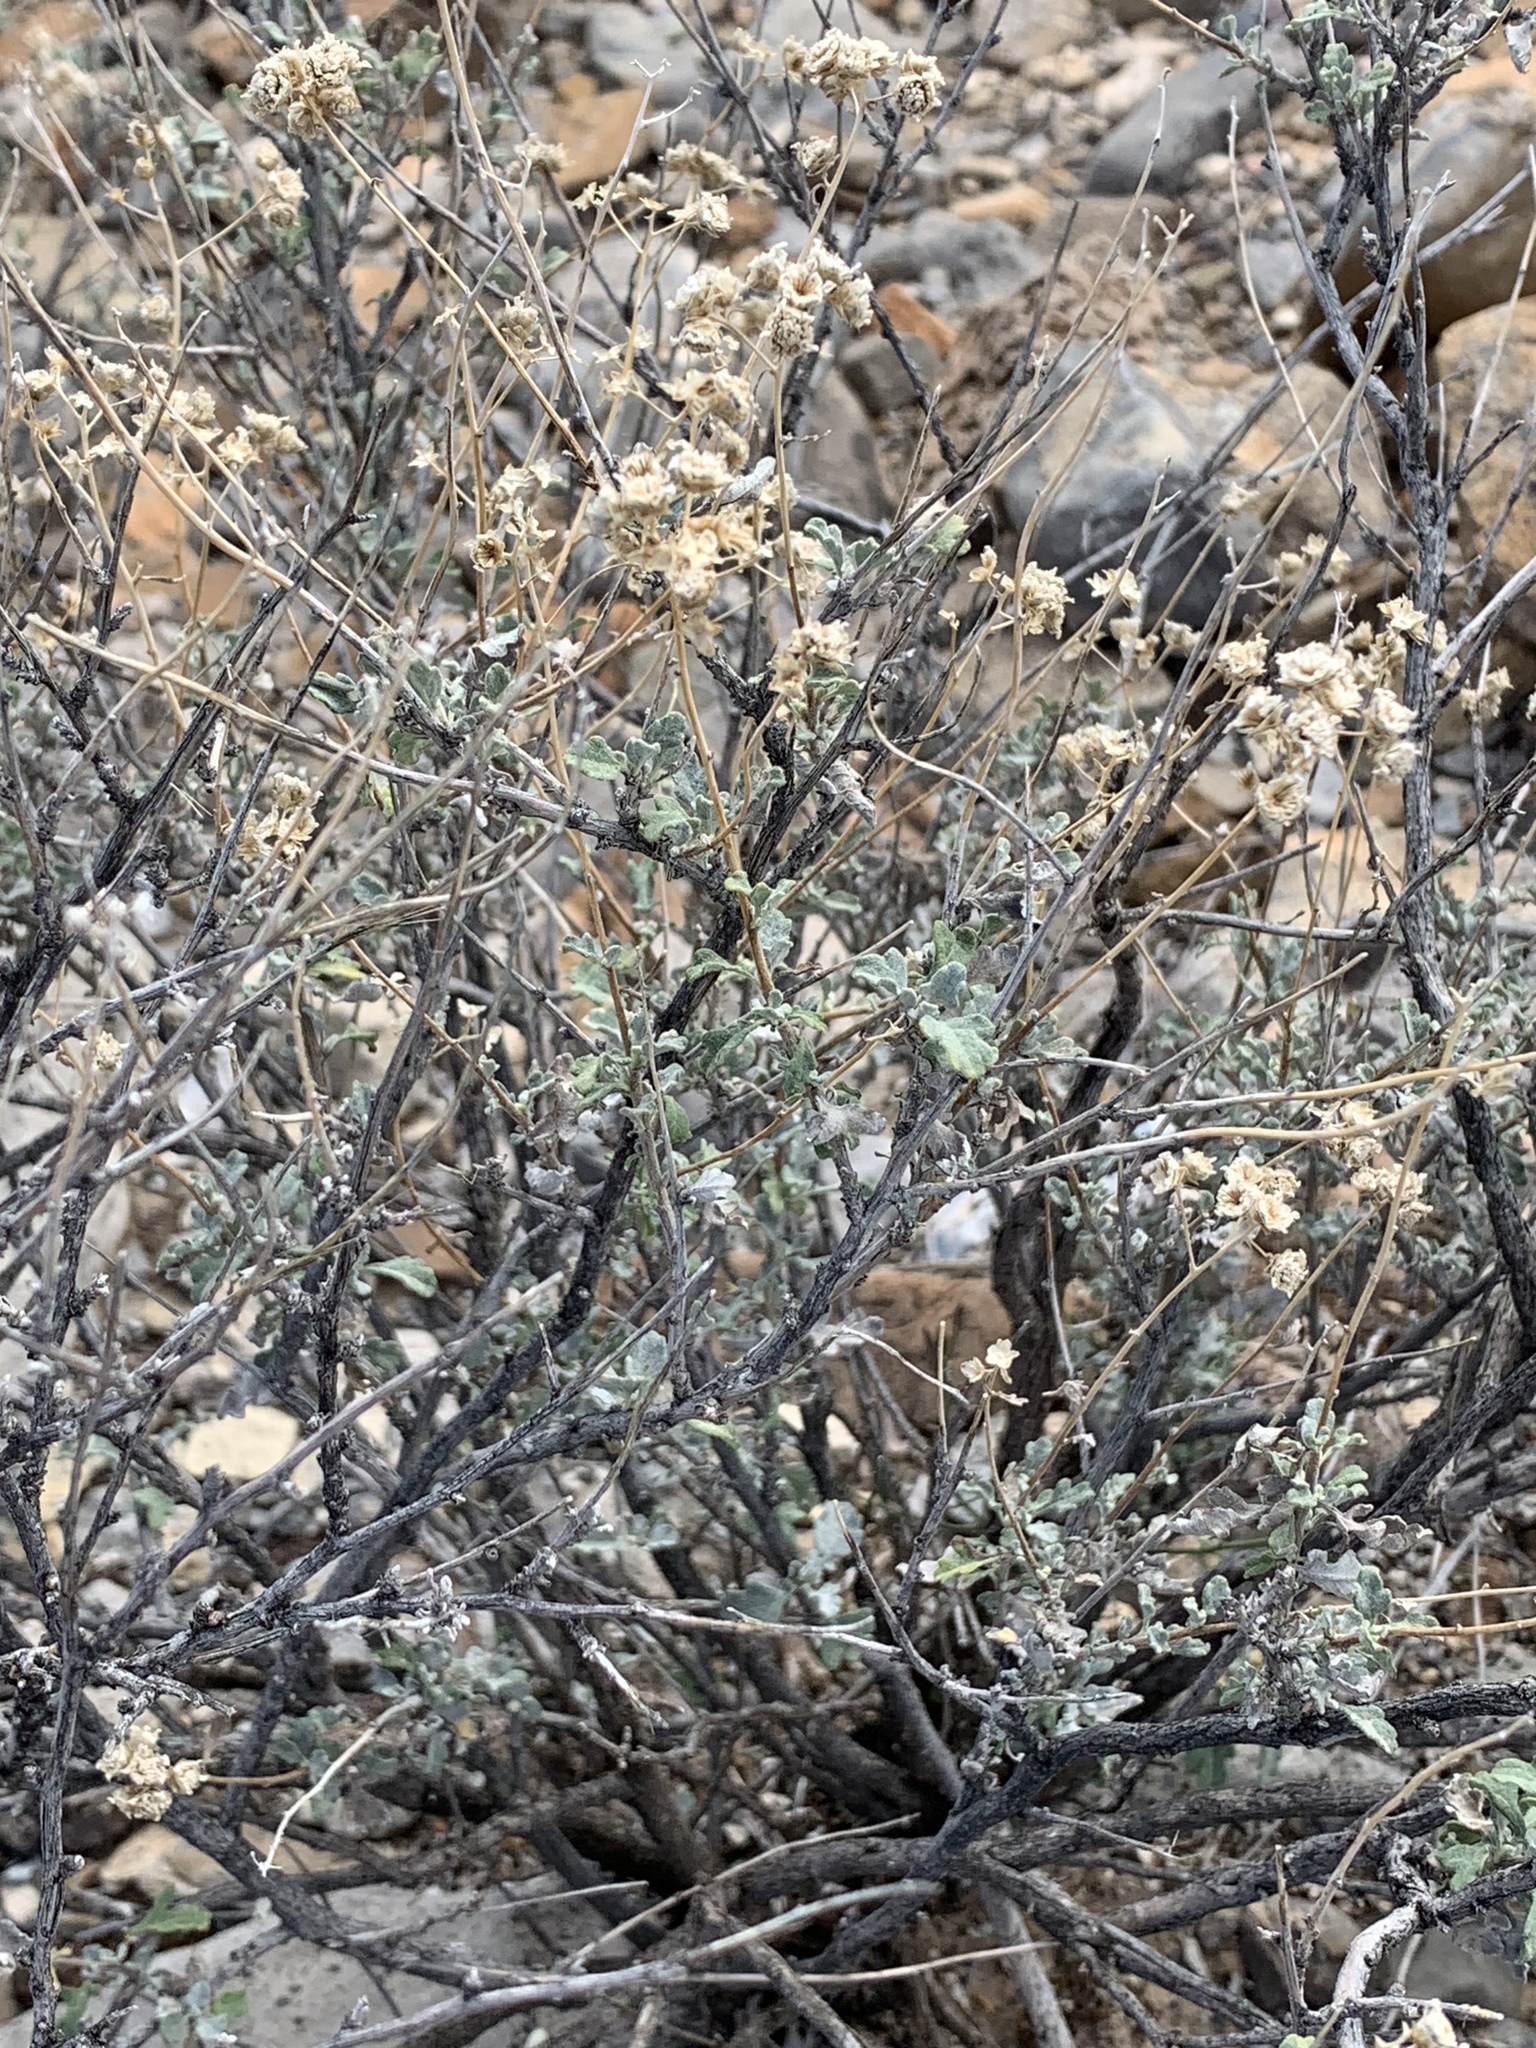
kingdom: Plantae
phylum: Tracheophyta
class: Magnoliopsida
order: Asterales
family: Asteraceae
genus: Parthenium
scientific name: Parthenium incanum
